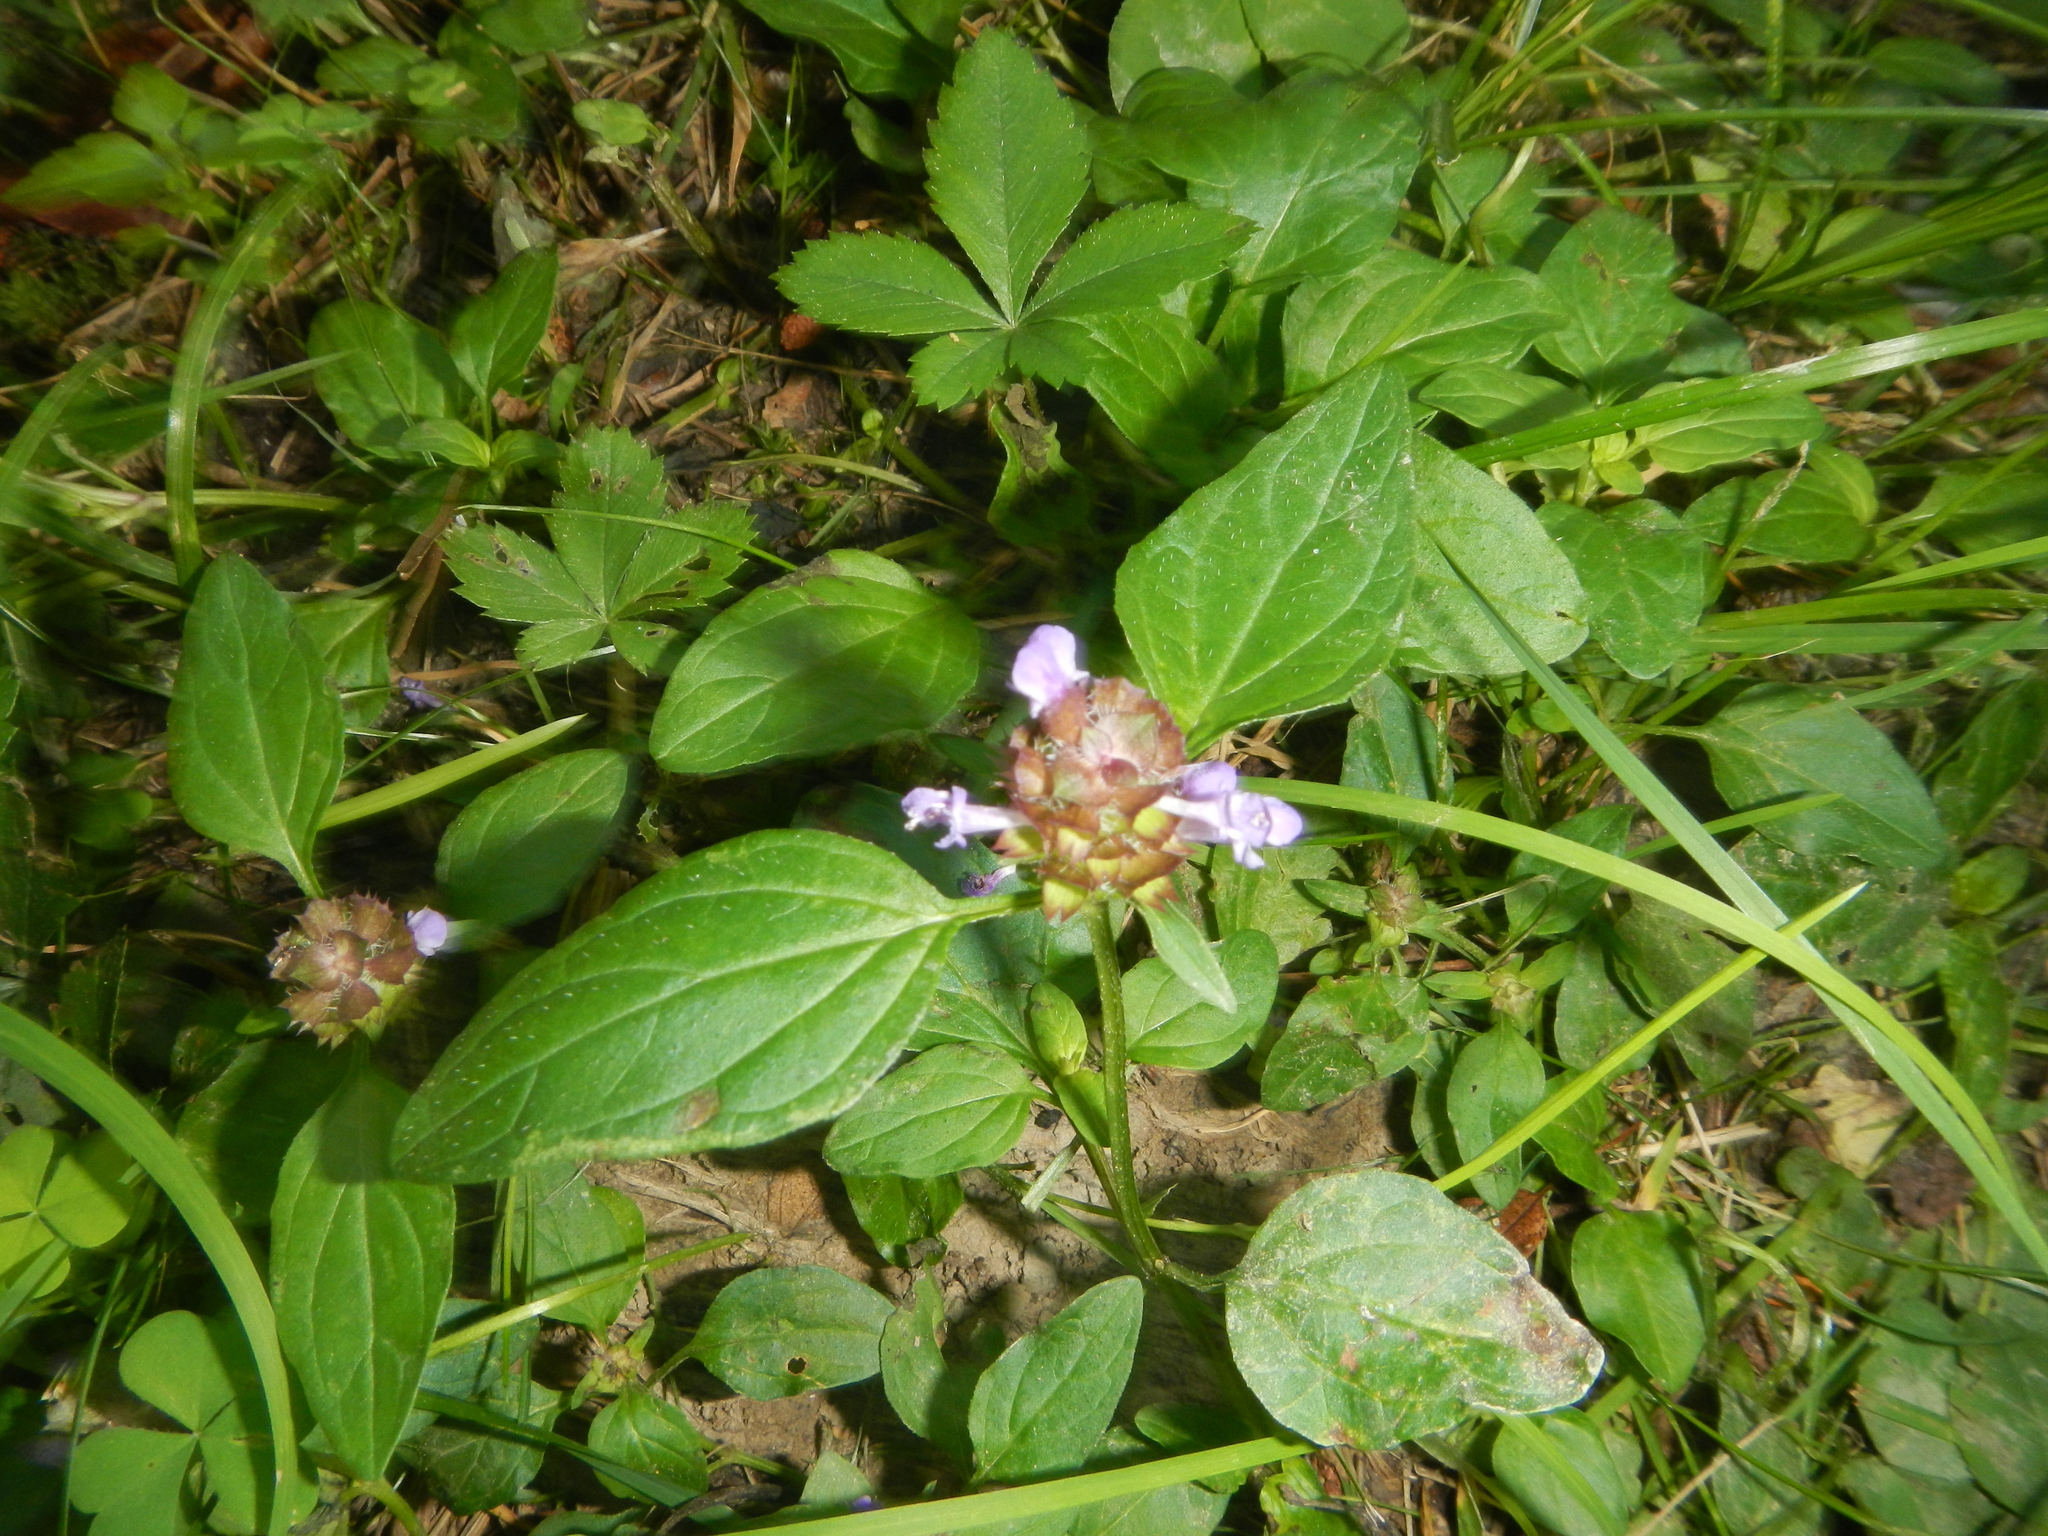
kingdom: Plantae
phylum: Tracheophyta
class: Magnoliopsida
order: Lamiales
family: Lamiaceae
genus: Prunella
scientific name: Prunella vulgaris
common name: Heal-all
